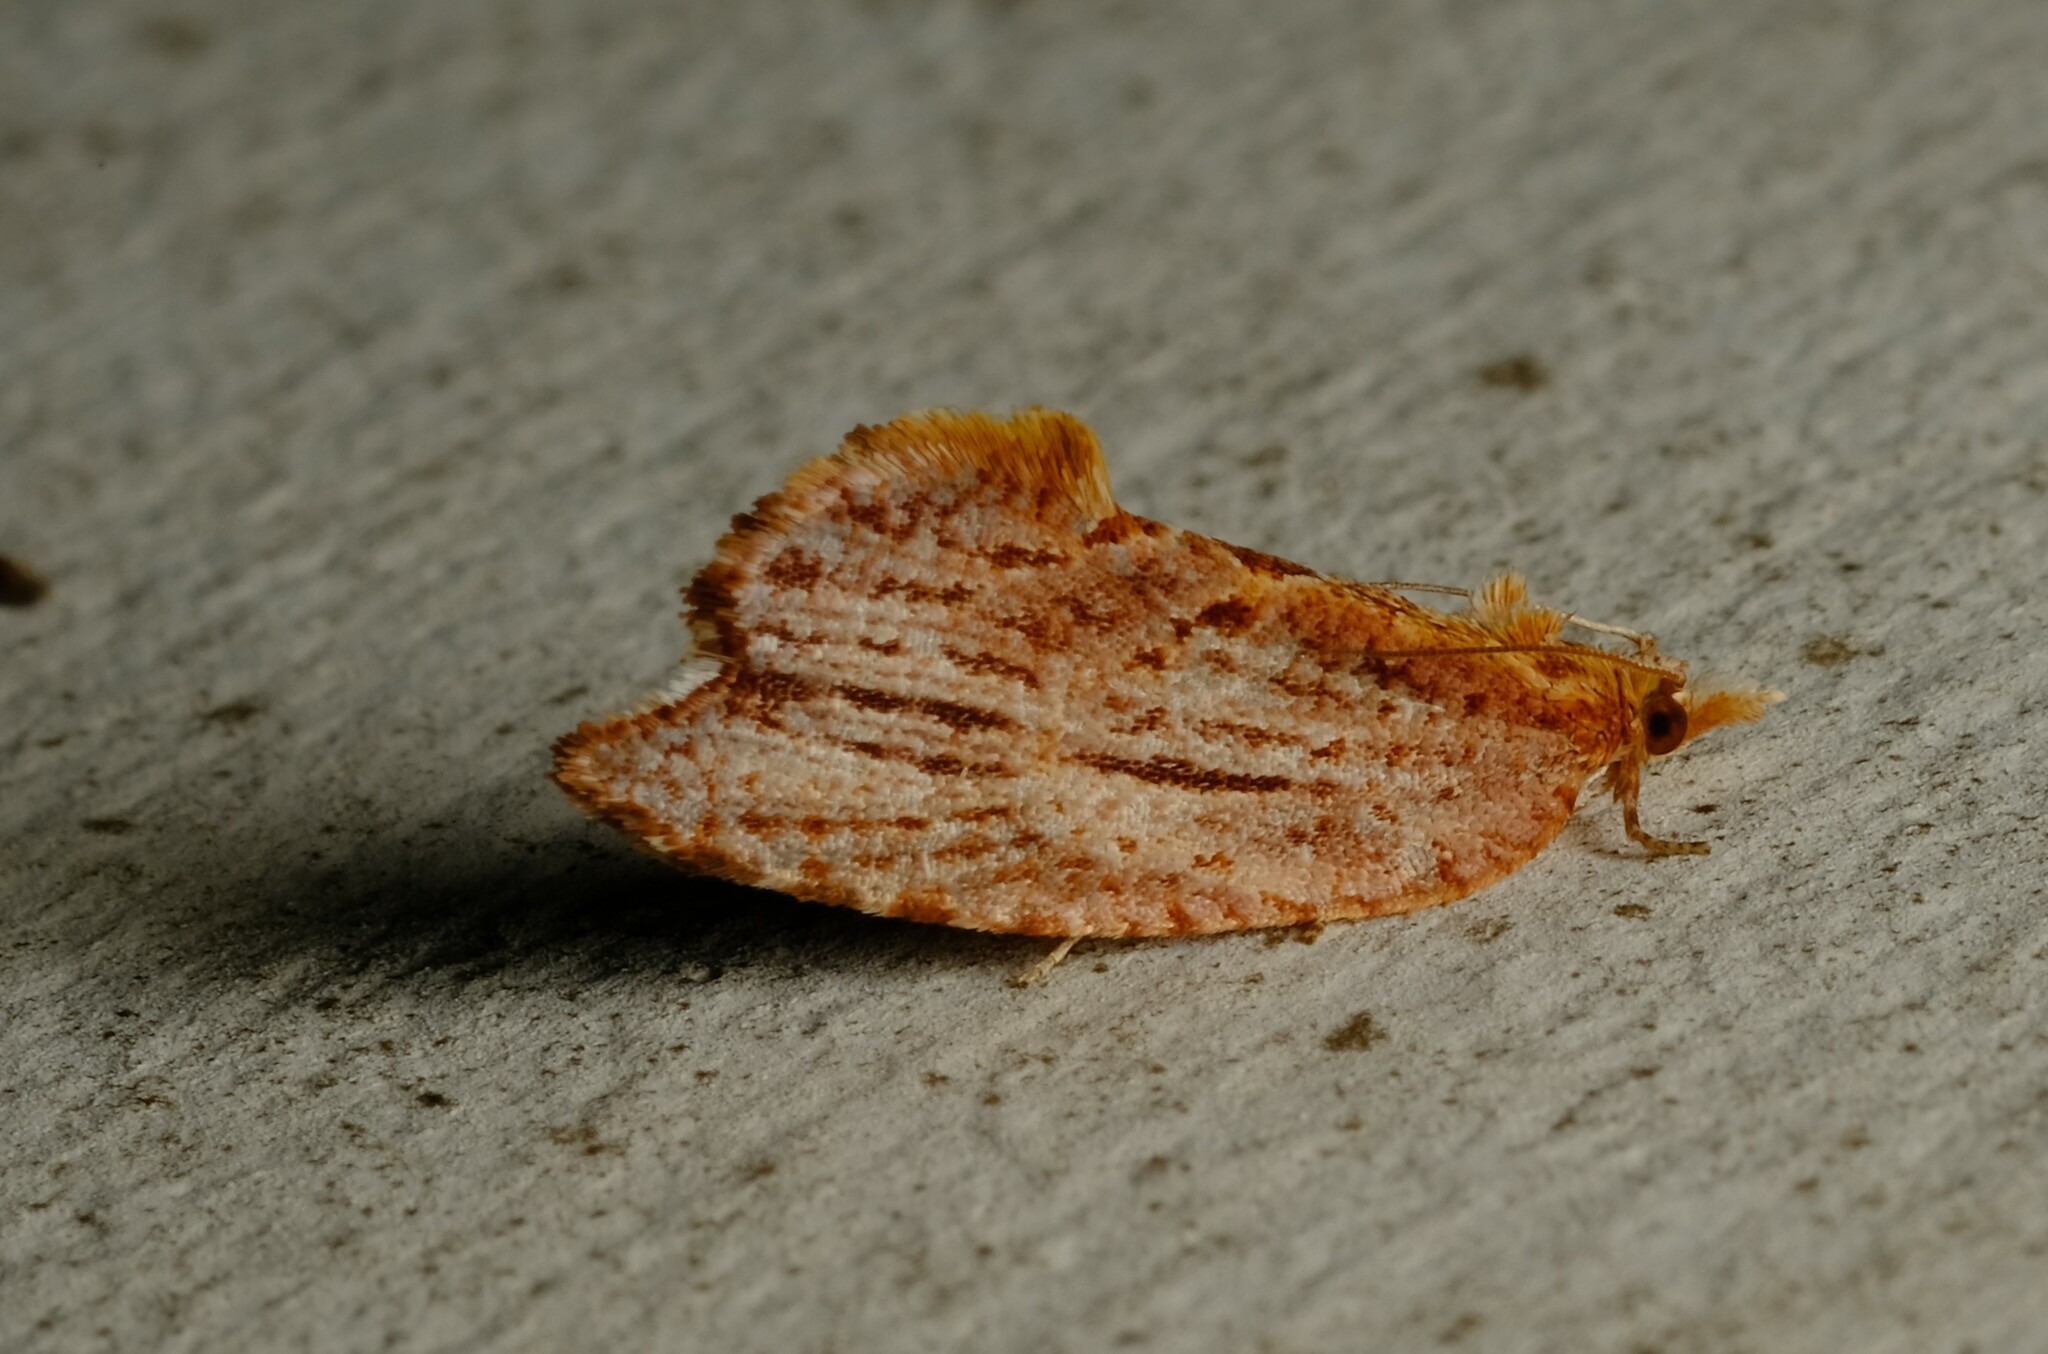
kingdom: Animalia
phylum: Arthropoda
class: Insecta
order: Lepidoptera
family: Tortricidae
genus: Glyphidoptera
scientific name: Glyphidoptera polymita
